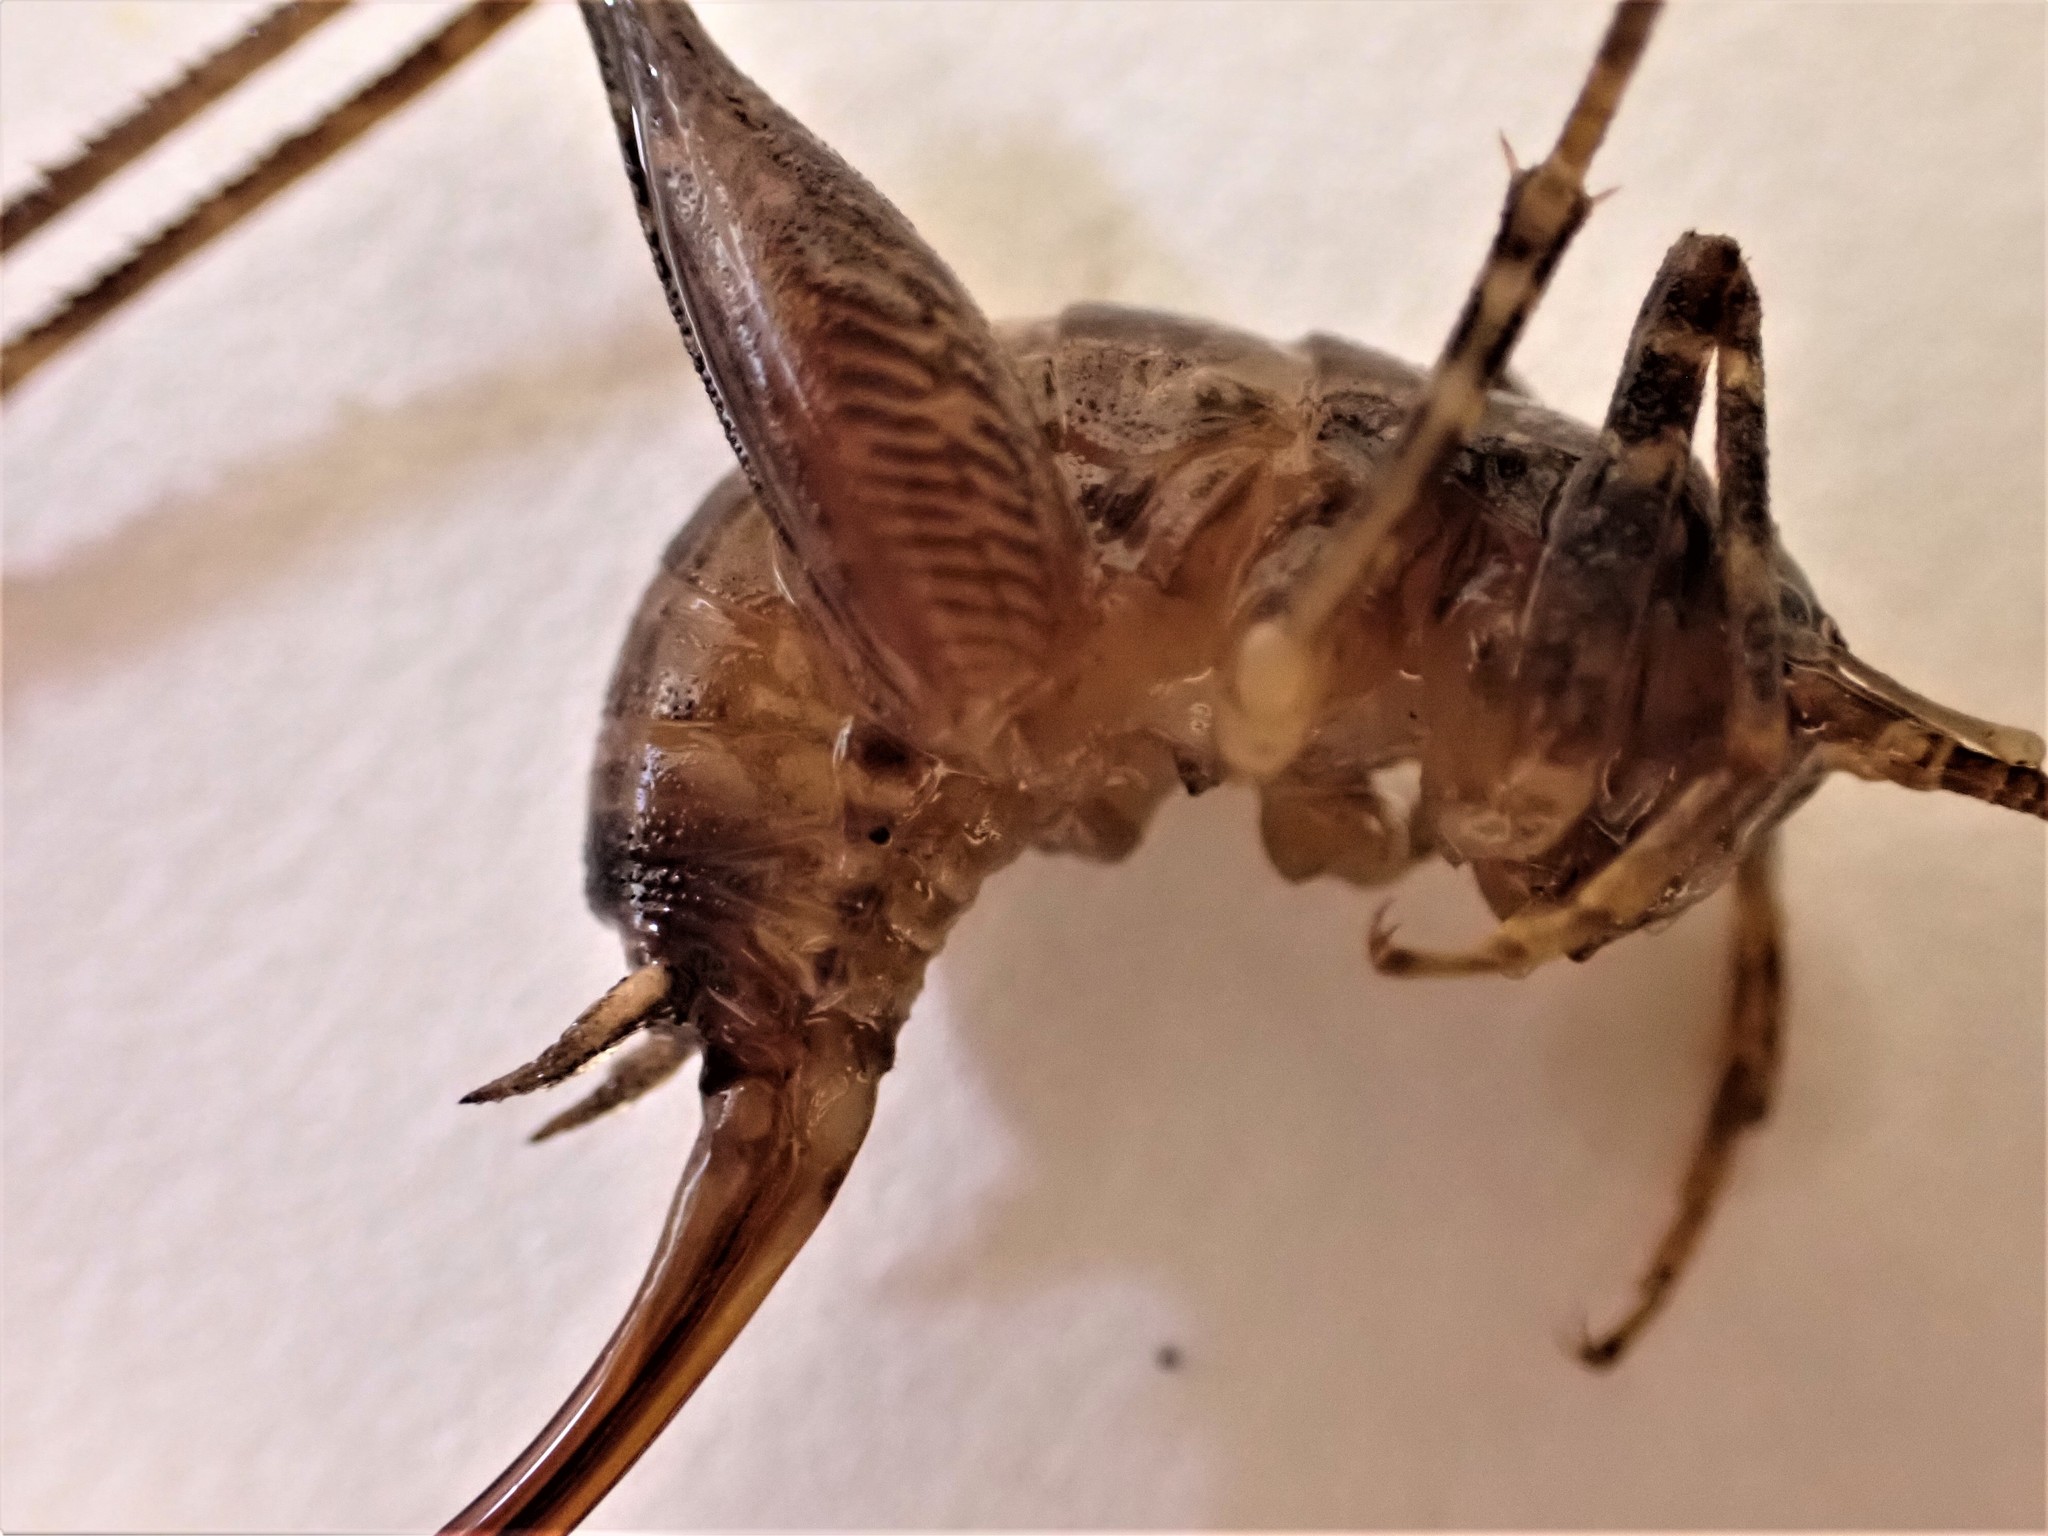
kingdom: Animalia
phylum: Arthropoda
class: Insecta
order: Orthoptera
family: Rhaphidophoridae
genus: Pleioplectron
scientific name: Pleioplectron simplex
